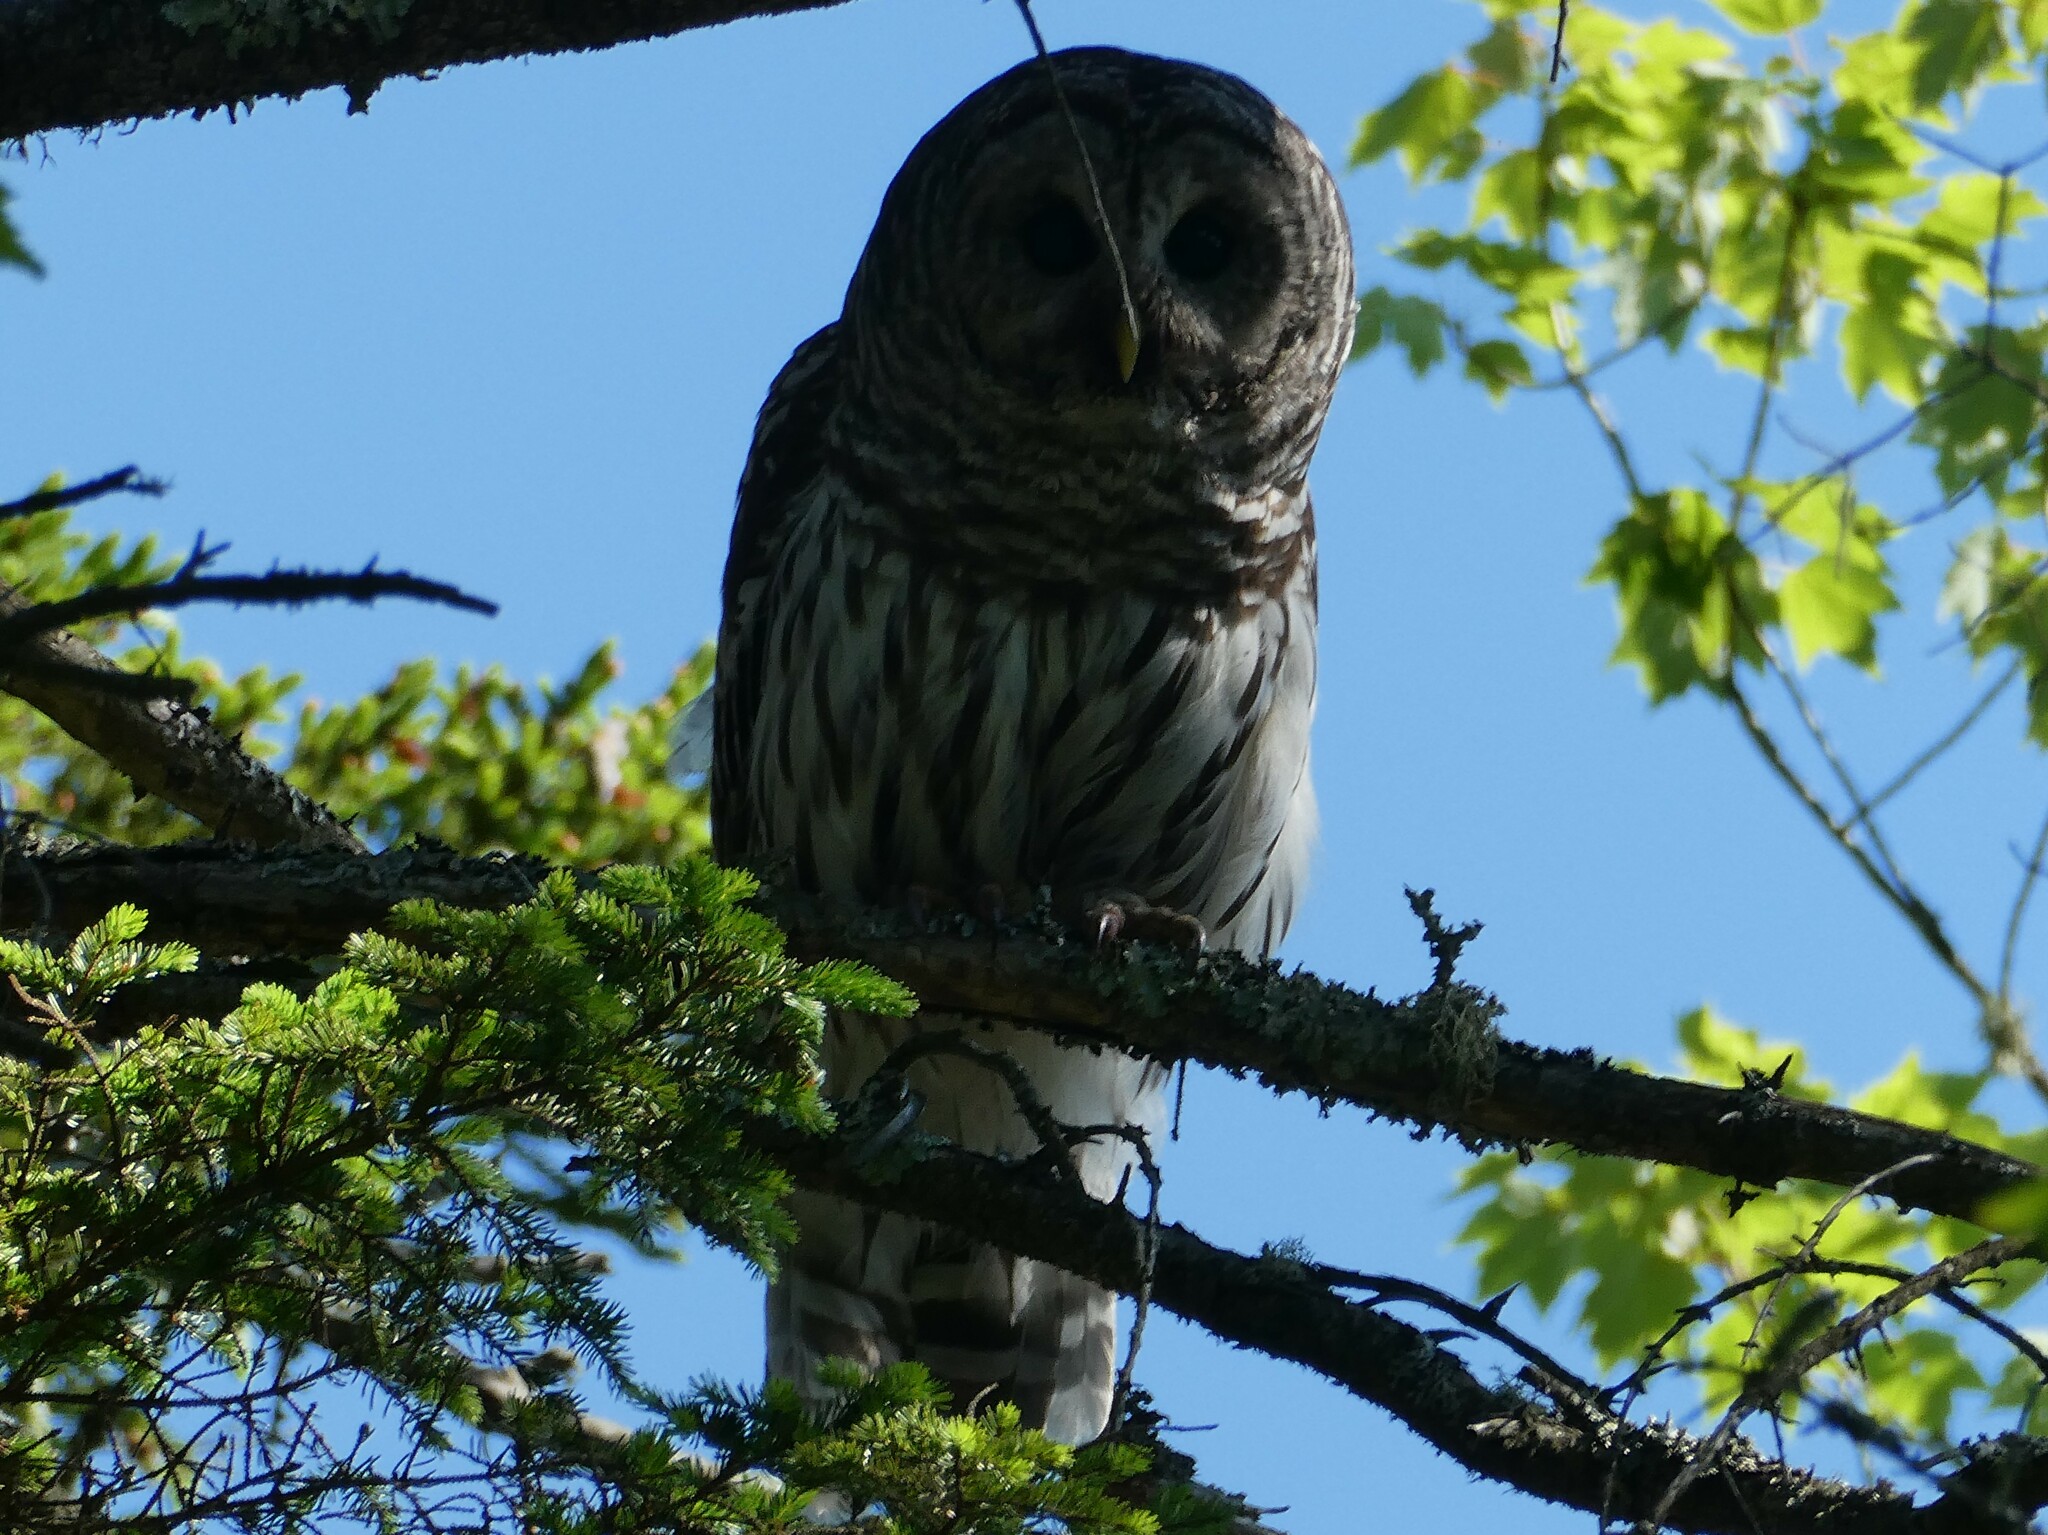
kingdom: Animalia
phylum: Chordata
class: Aves
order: Strigiformes
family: Strigidae
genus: Strix
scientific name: Strix varia
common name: Barred owl
